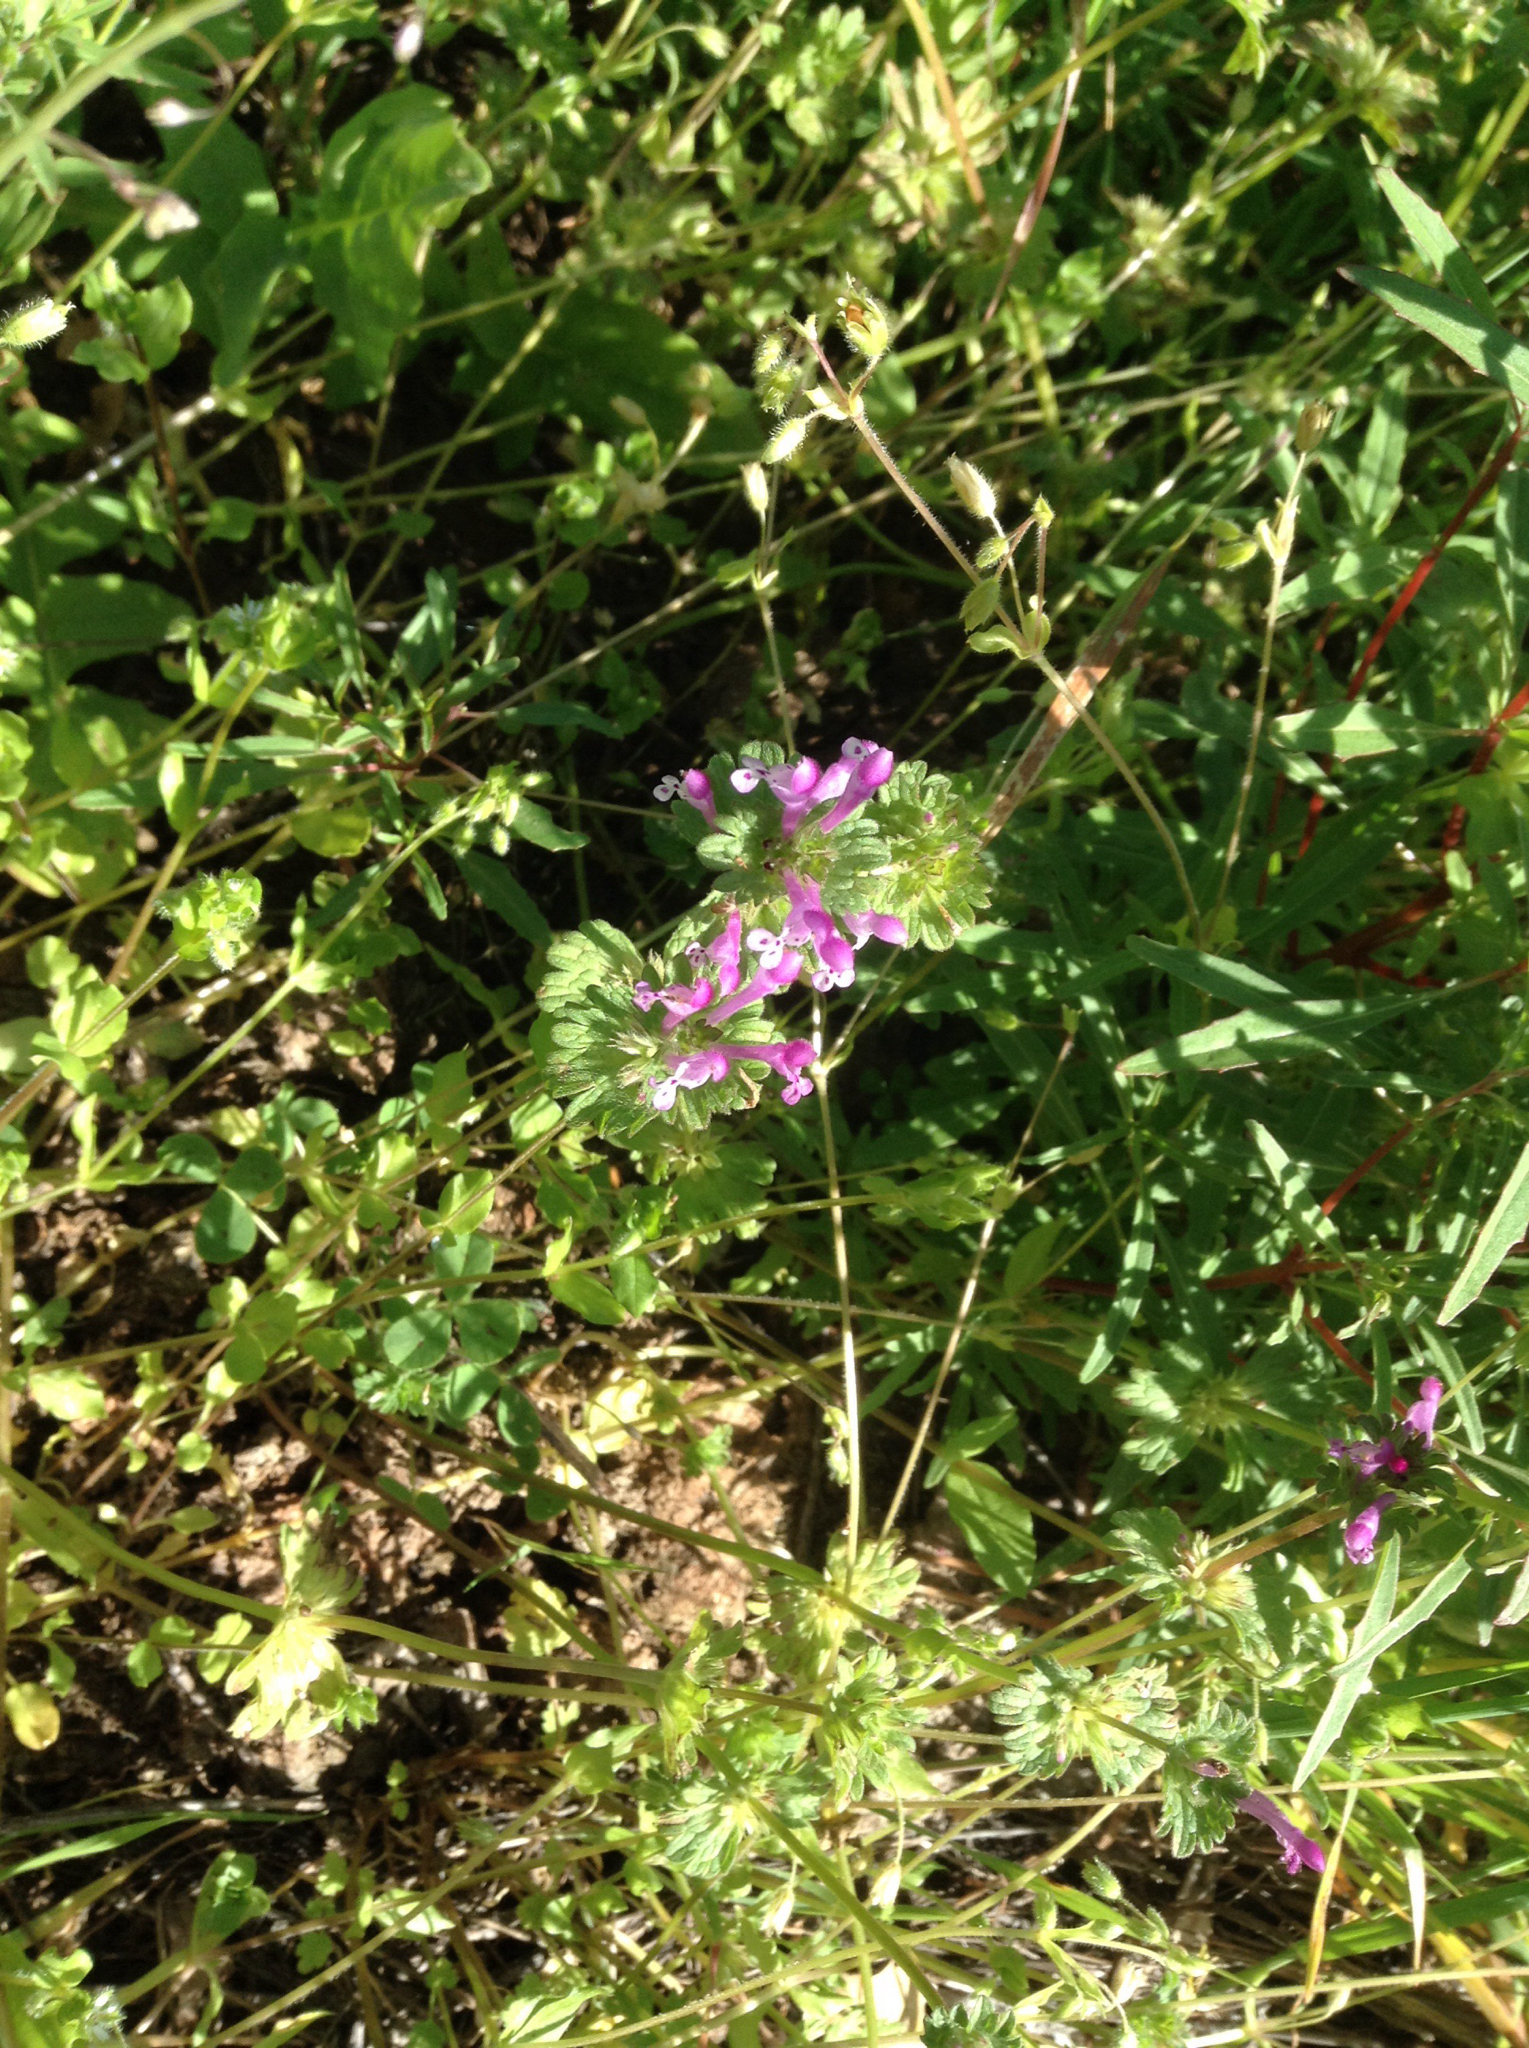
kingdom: Plantae
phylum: Tracheophyta
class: Magnoliopsida
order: Lamiales
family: Lamiaceae
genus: Lamium
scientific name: Lamium amplexicaule
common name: Henbit dead-nettle
